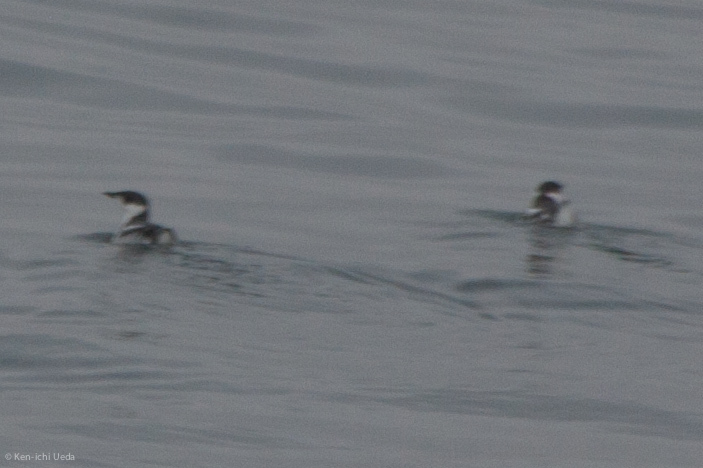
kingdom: Animalia
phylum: Chordata
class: Aves
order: Charadriiformes
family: Alcidae
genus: Brachyramphus
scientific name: Brachyramphus marmoratus
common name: Marbled murrelet
